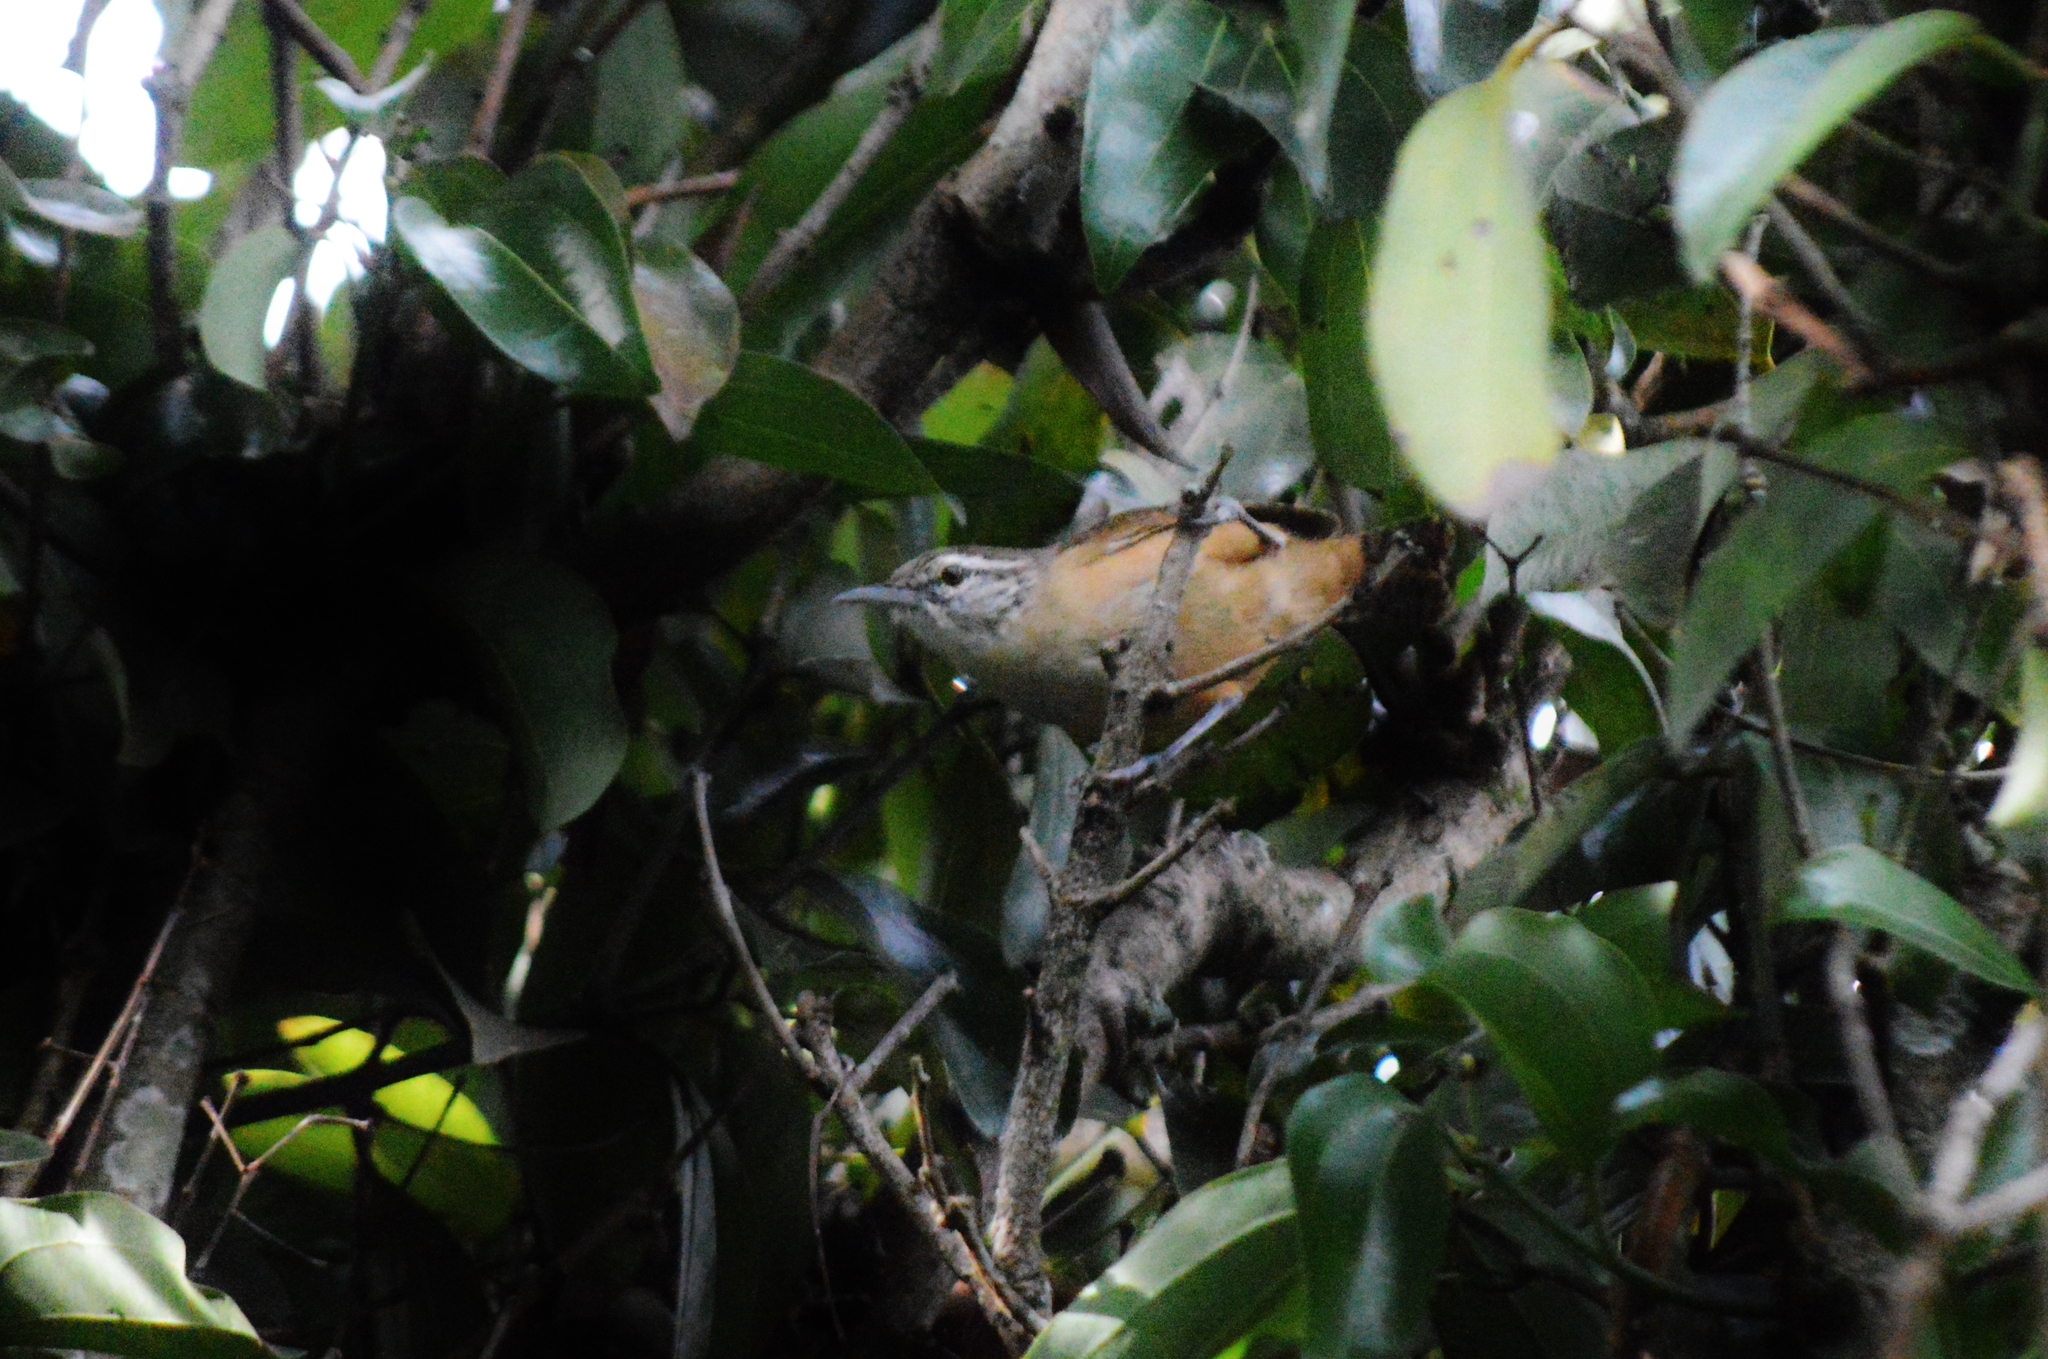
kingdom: Animalia
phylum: Chordata
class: Aves
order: Passeriformes
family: Troglodytidae
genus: Cantorchilus
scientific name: Cantorchilus leucotis
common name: Buff-breasted wren
